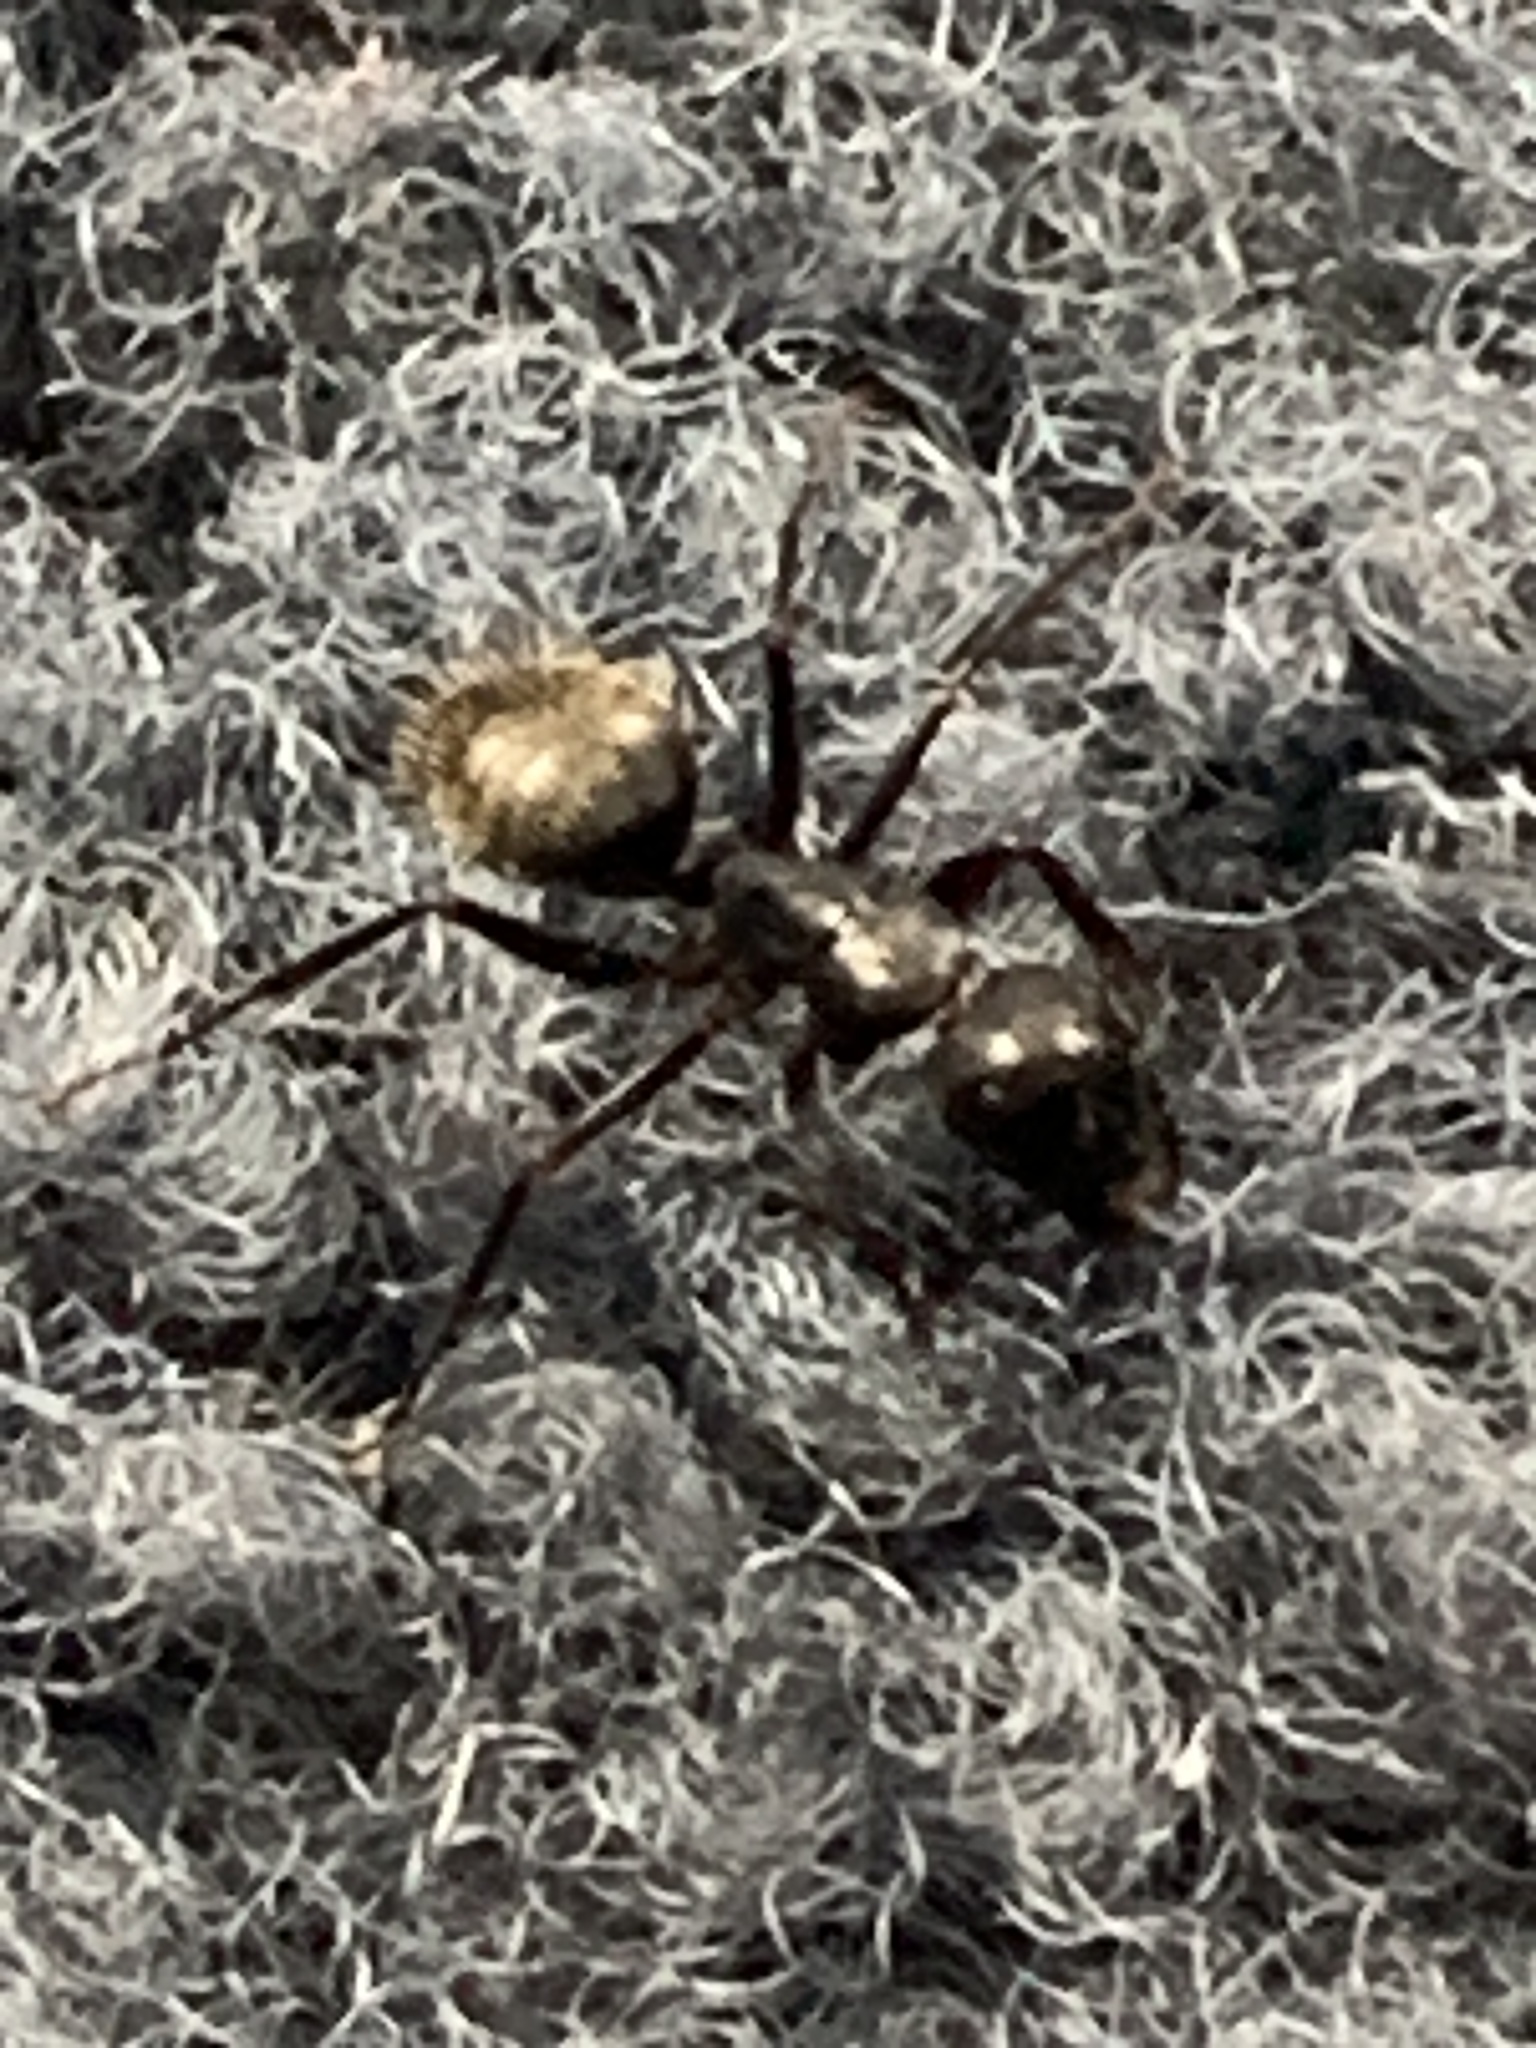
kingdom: Animalia
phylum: Arthropoda
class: Insecta
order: Hymenoptera
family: Formicidae
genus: Camponotus
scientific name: Camponotus pennsylvanicus
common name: Black carpenter ant
